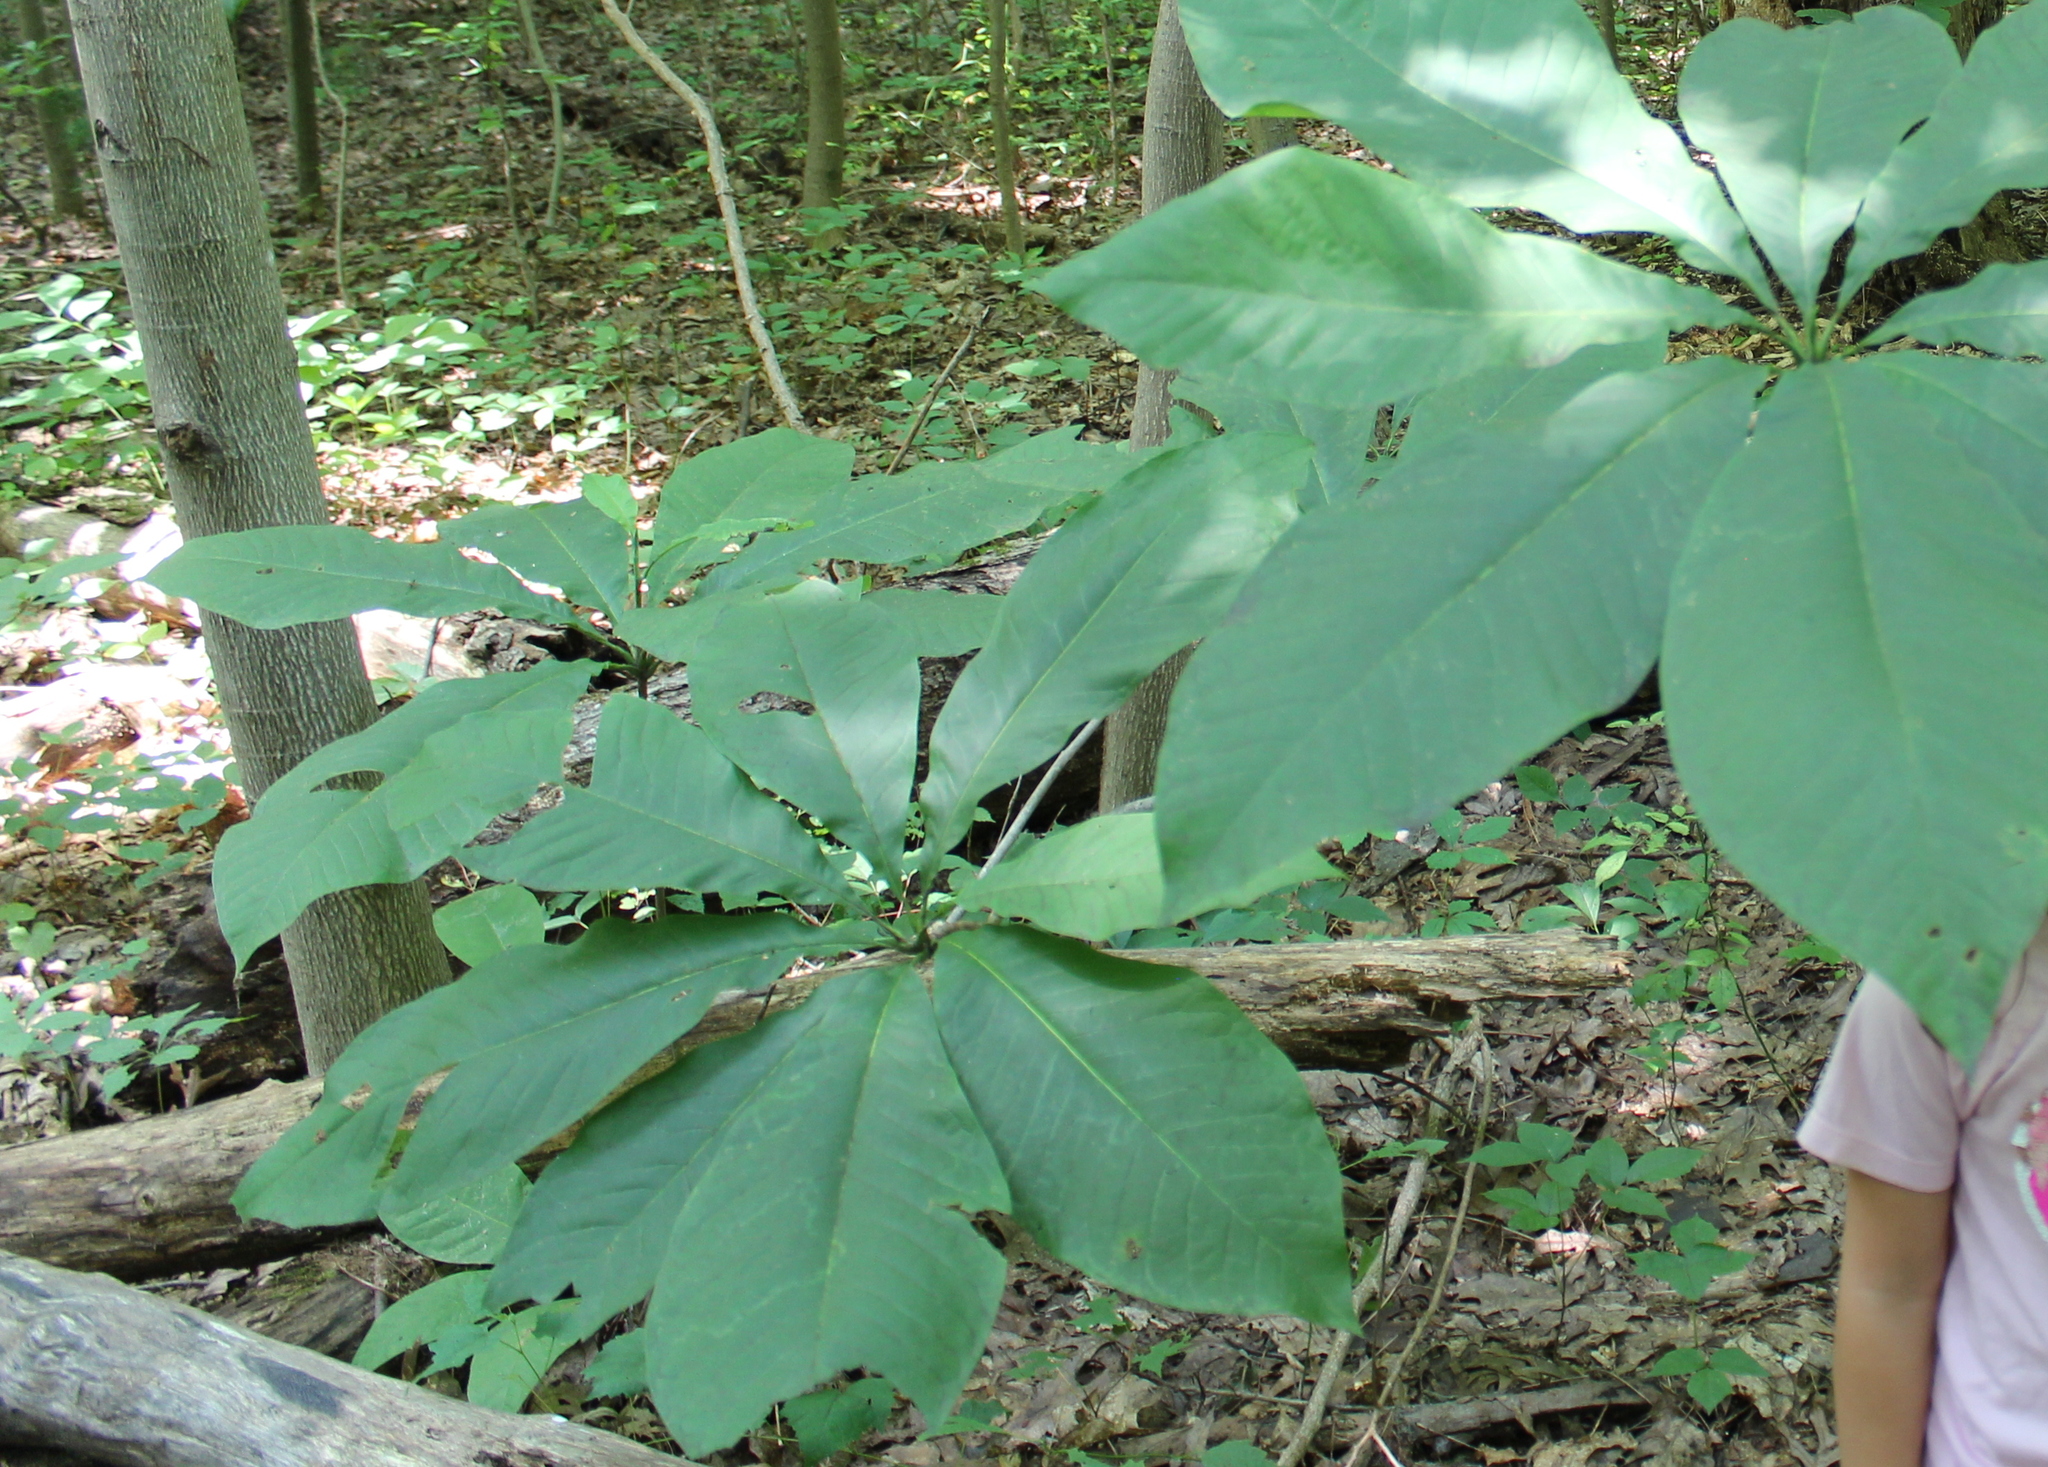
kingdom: Plantae
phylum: Tracheophyta
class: Magnoliopsida
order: Magnoliales
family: Magnoliaceae
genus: Magnolia
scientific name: Magnolia tripetala
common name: Umbrella magnolia
